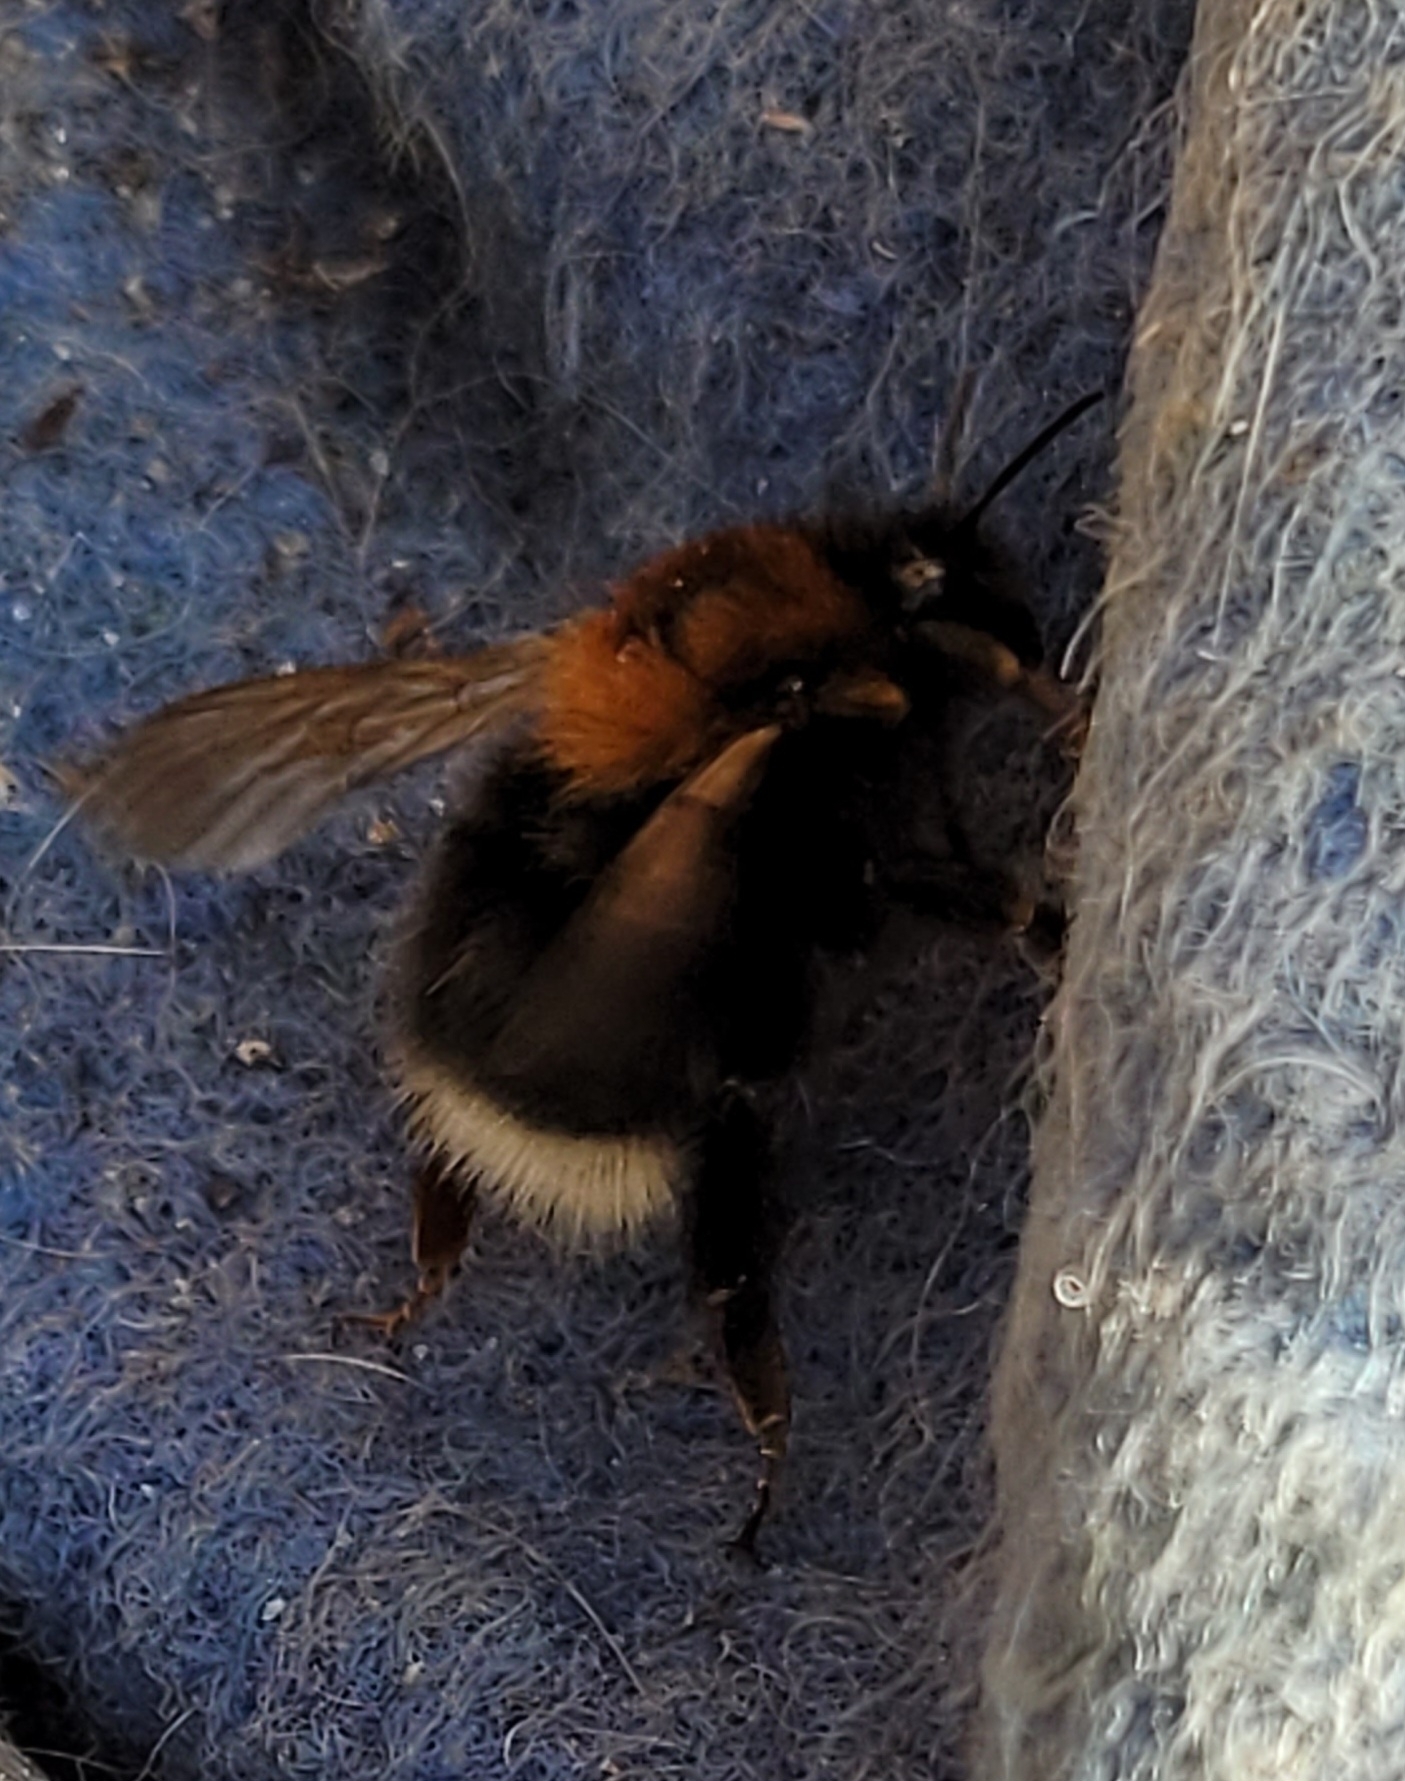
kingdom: Animalia
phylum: Arthropoda
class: Insecta
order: Hymenoptera
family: Apidae
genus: Bombus
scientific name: Bombus hypnorum
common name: New garden bumblebee
